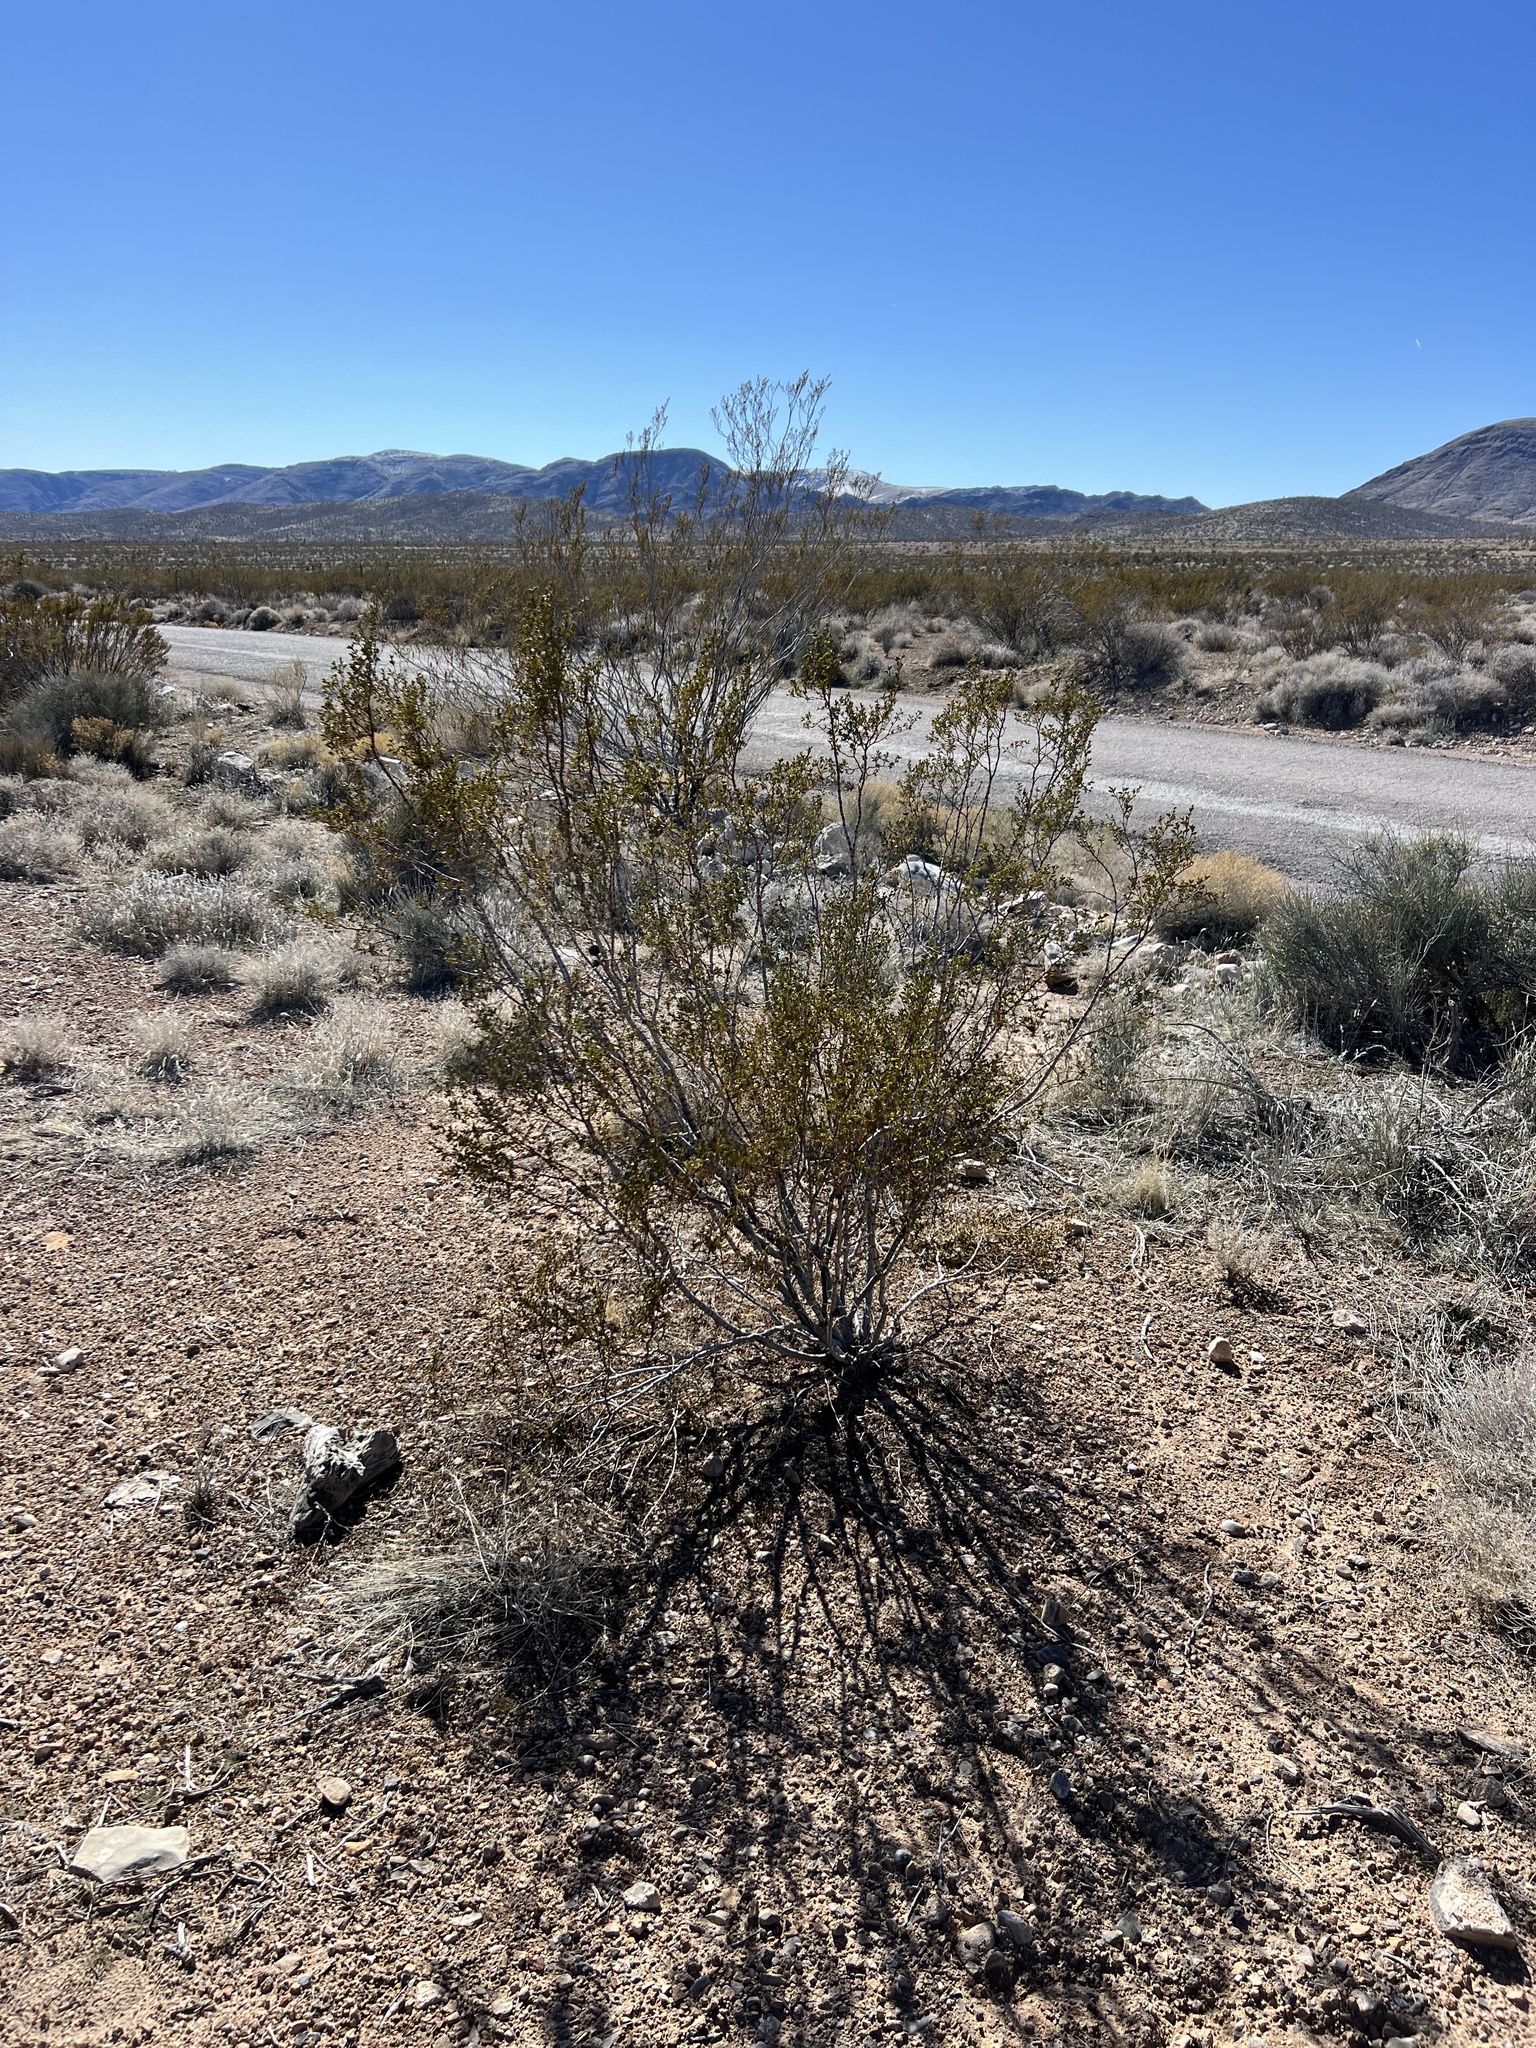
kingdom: Plantae
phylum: Tracheophyta
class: Magnoliopsida
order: Zygophyllales
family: Zygophyllaceae
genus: Larrea
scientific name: Larrea tridentata
